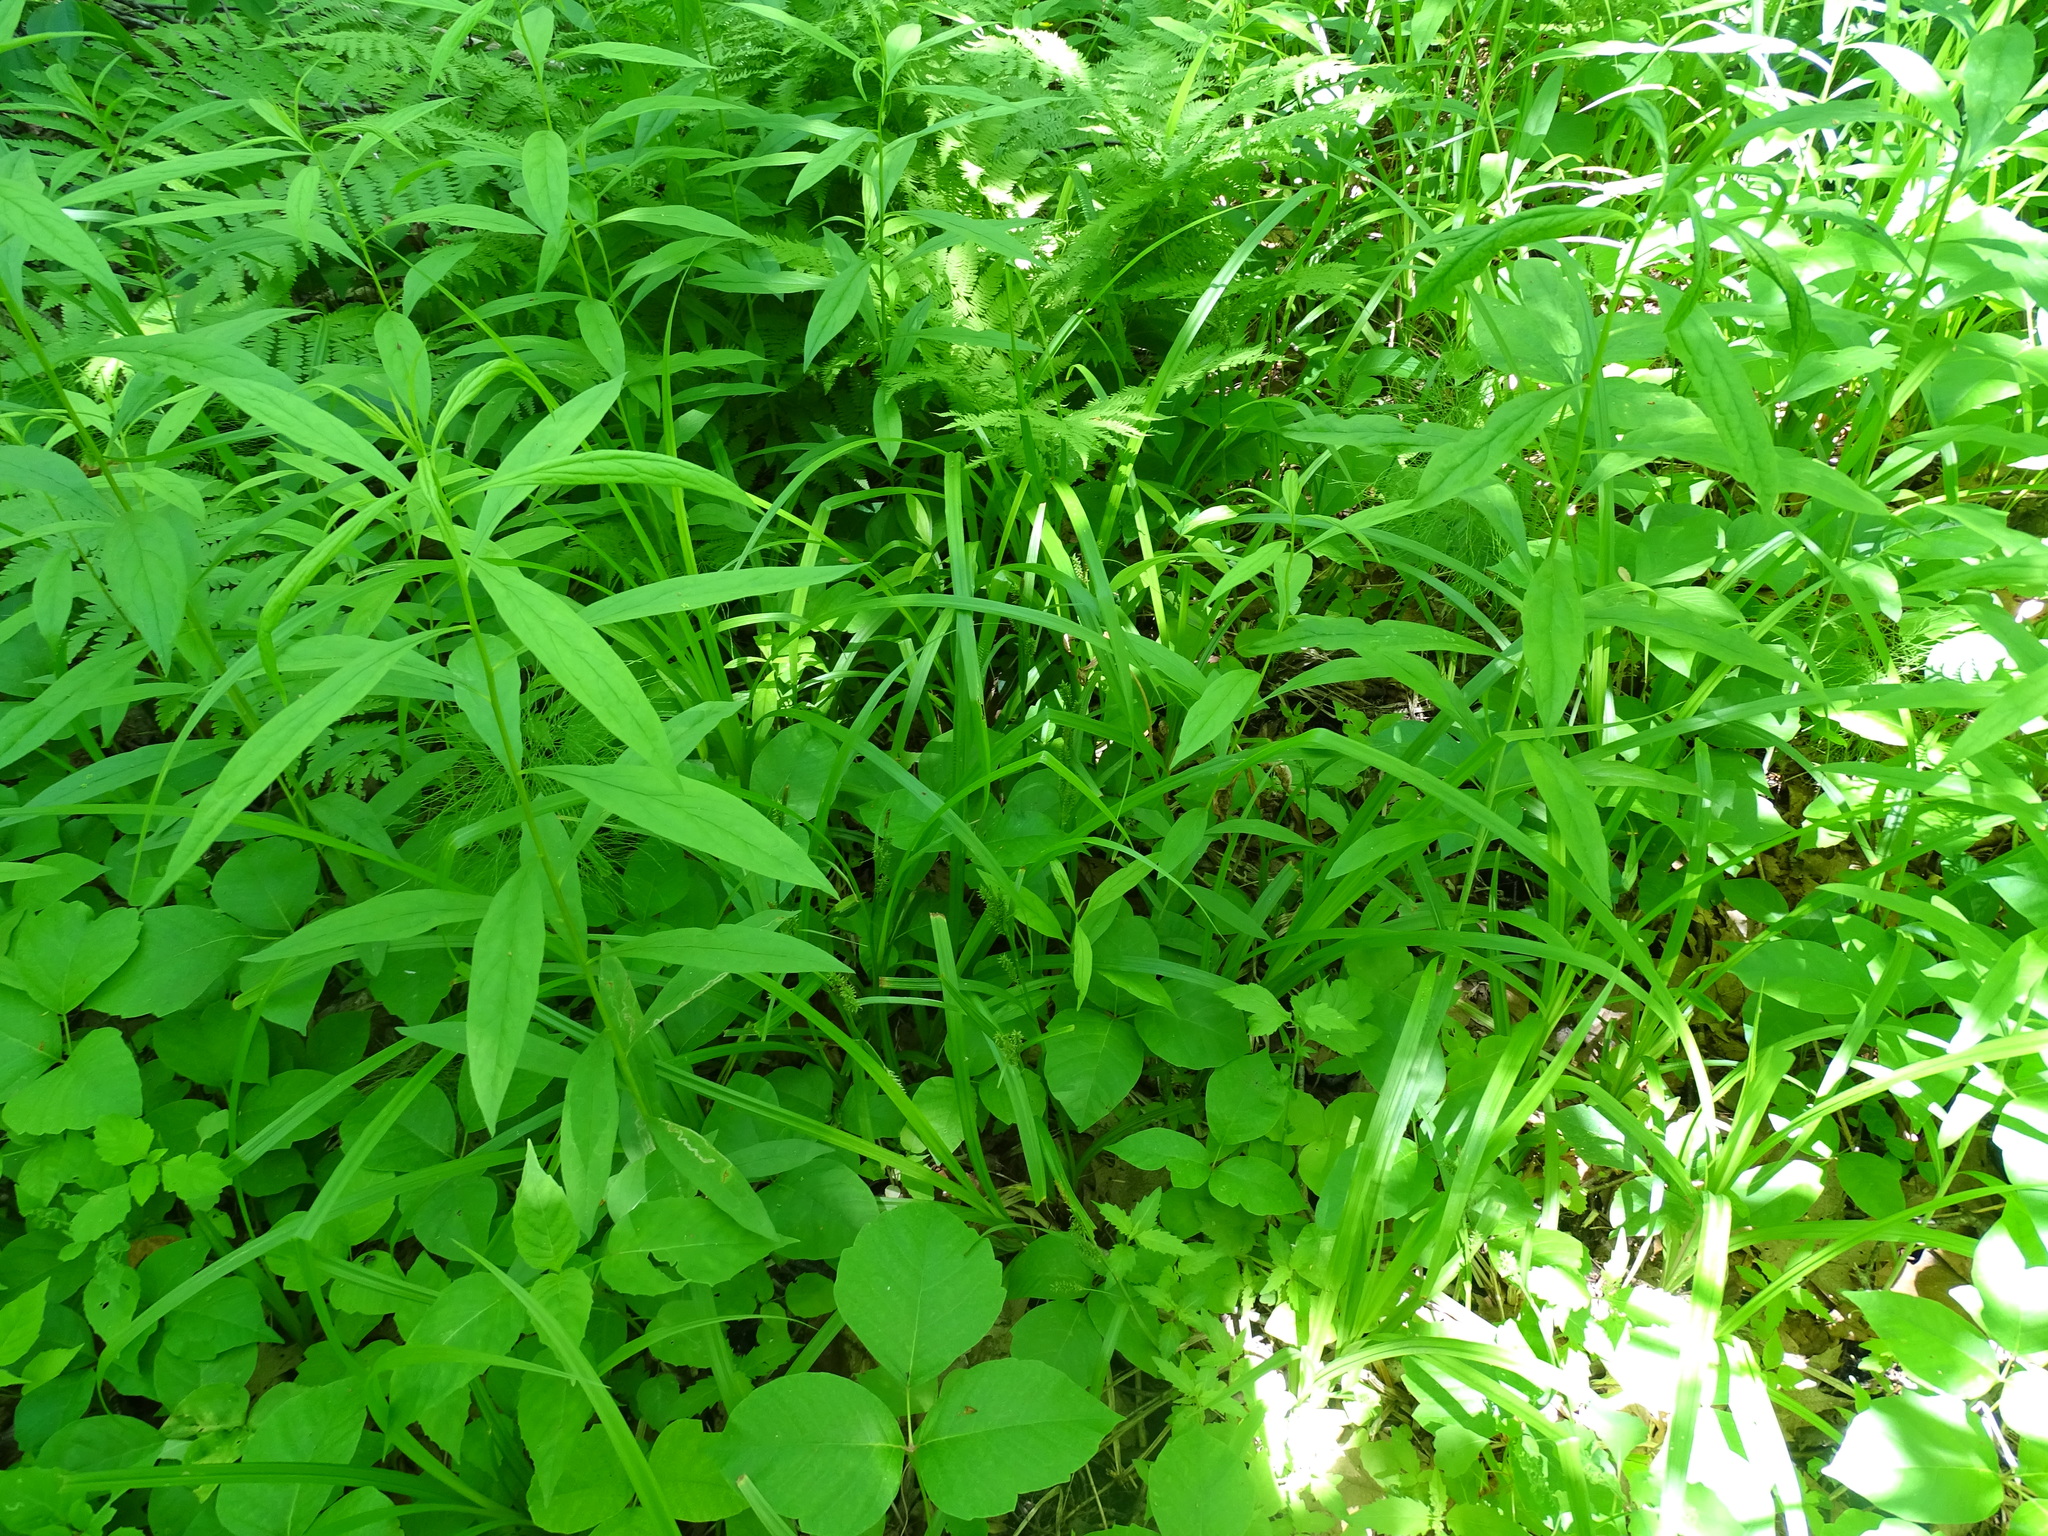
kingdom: Plantae
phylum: Tracheophyta
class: Liliopsida
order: Poales
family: Cyperaceae
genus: Carex
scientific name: Carex scabrata
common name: Eastern rough sedge
